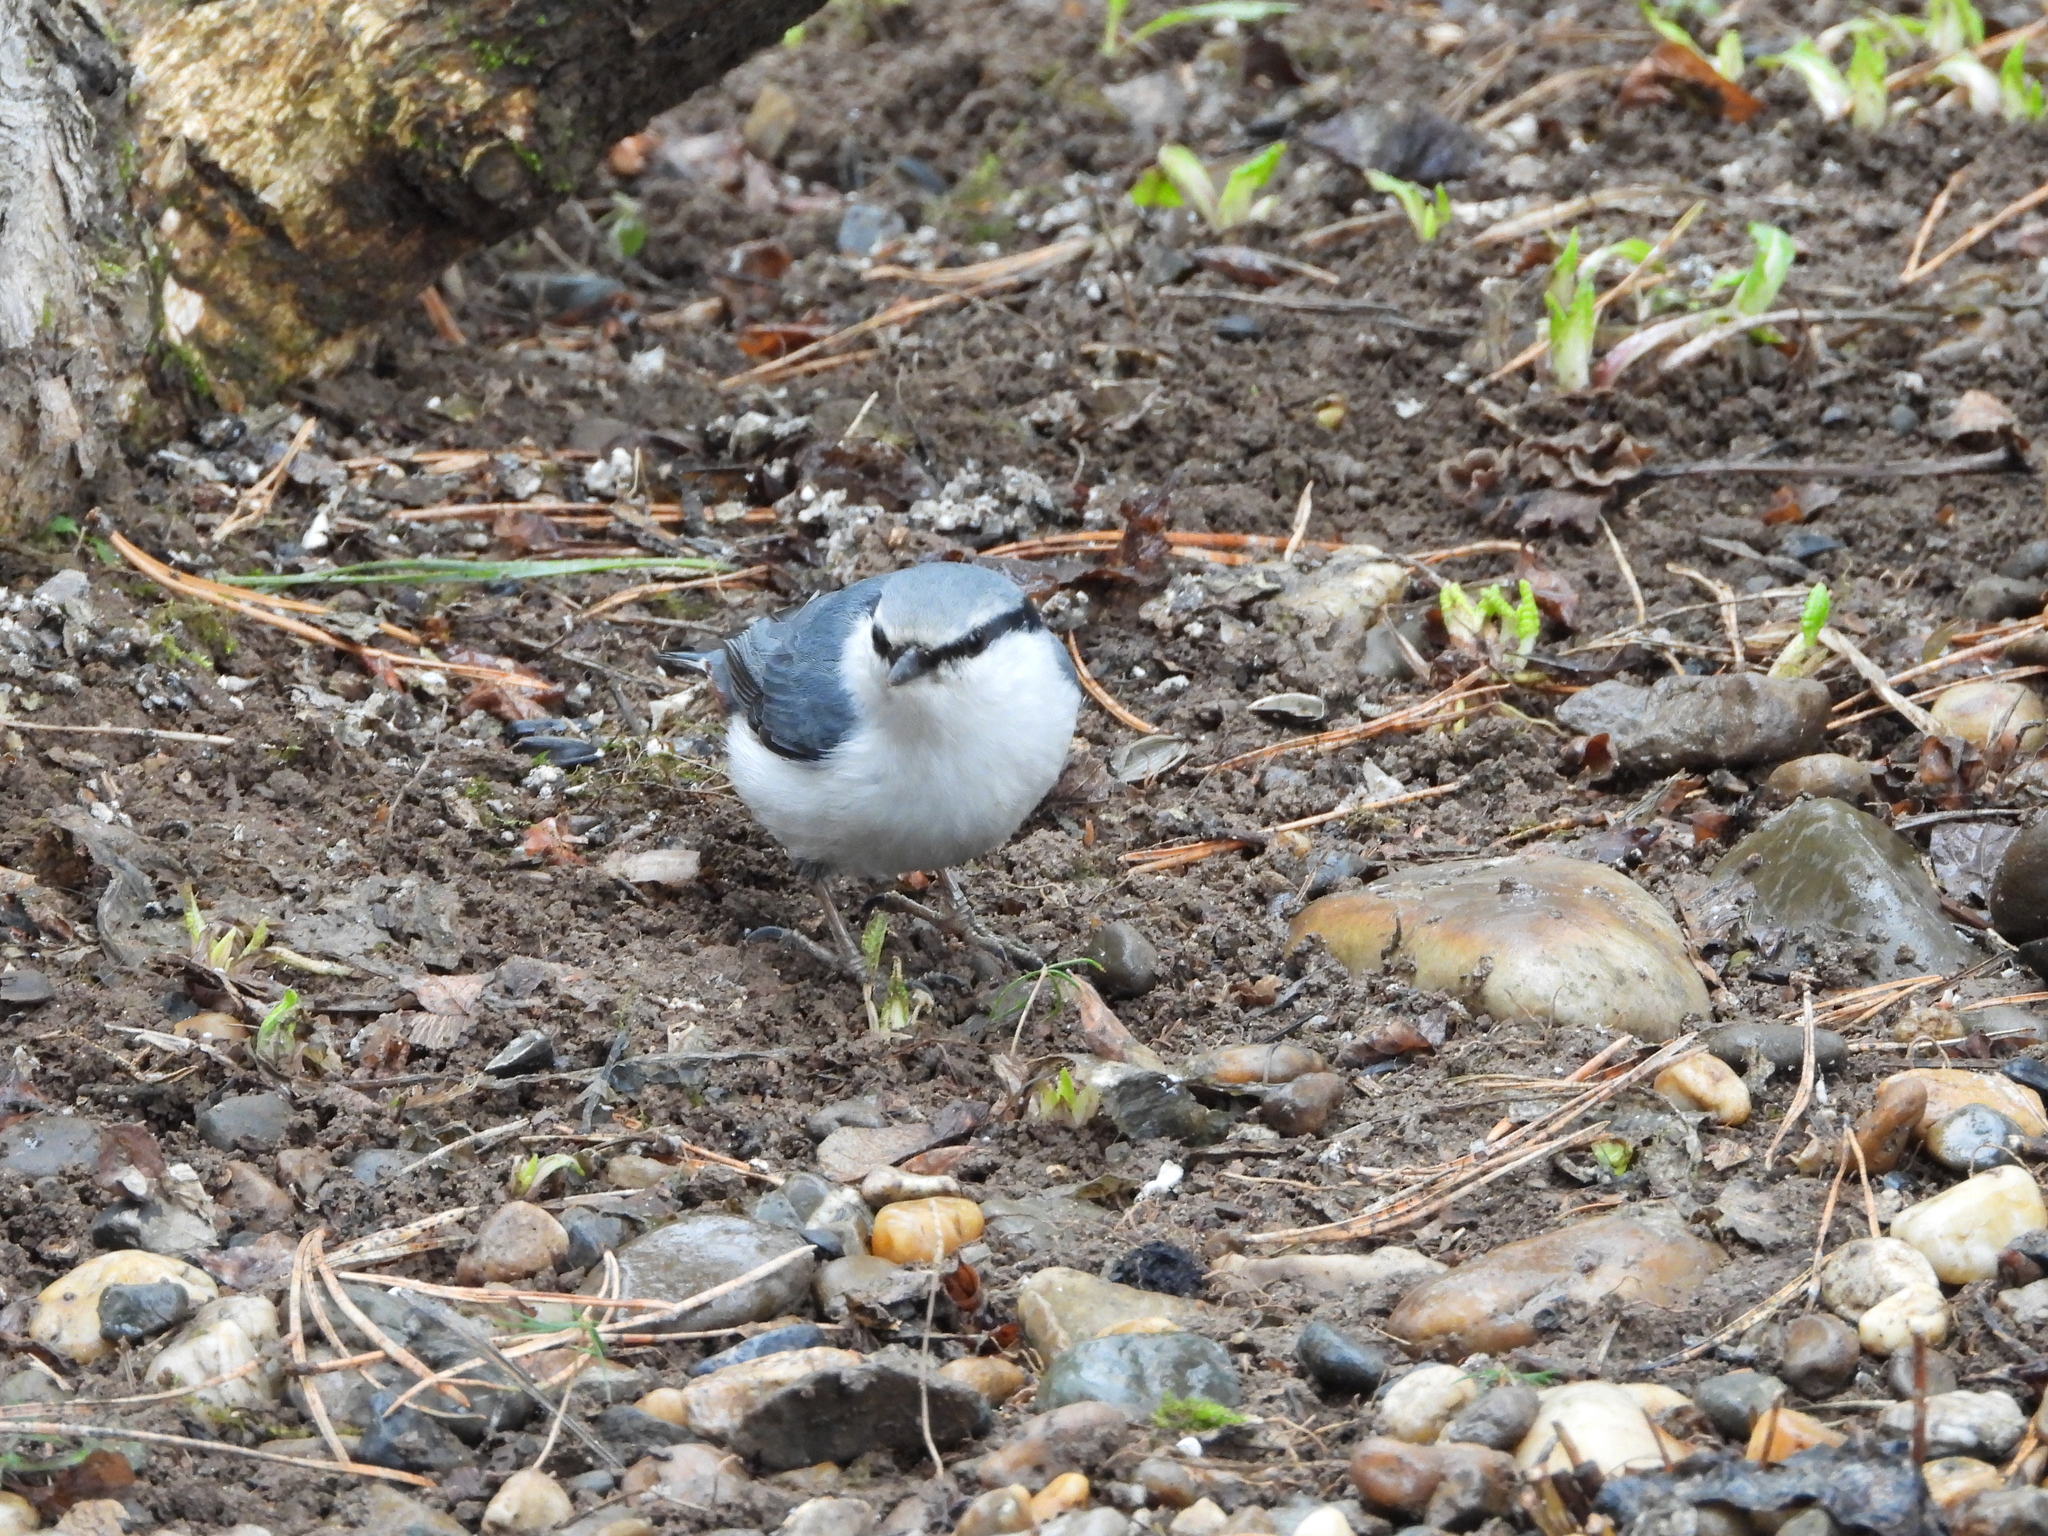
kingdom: Animalia
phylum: Chordata
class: Aves
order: Passeriformes
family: Sittidae
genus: Sitta
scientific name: Sitta europaea
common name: Eurasian nuthatch
